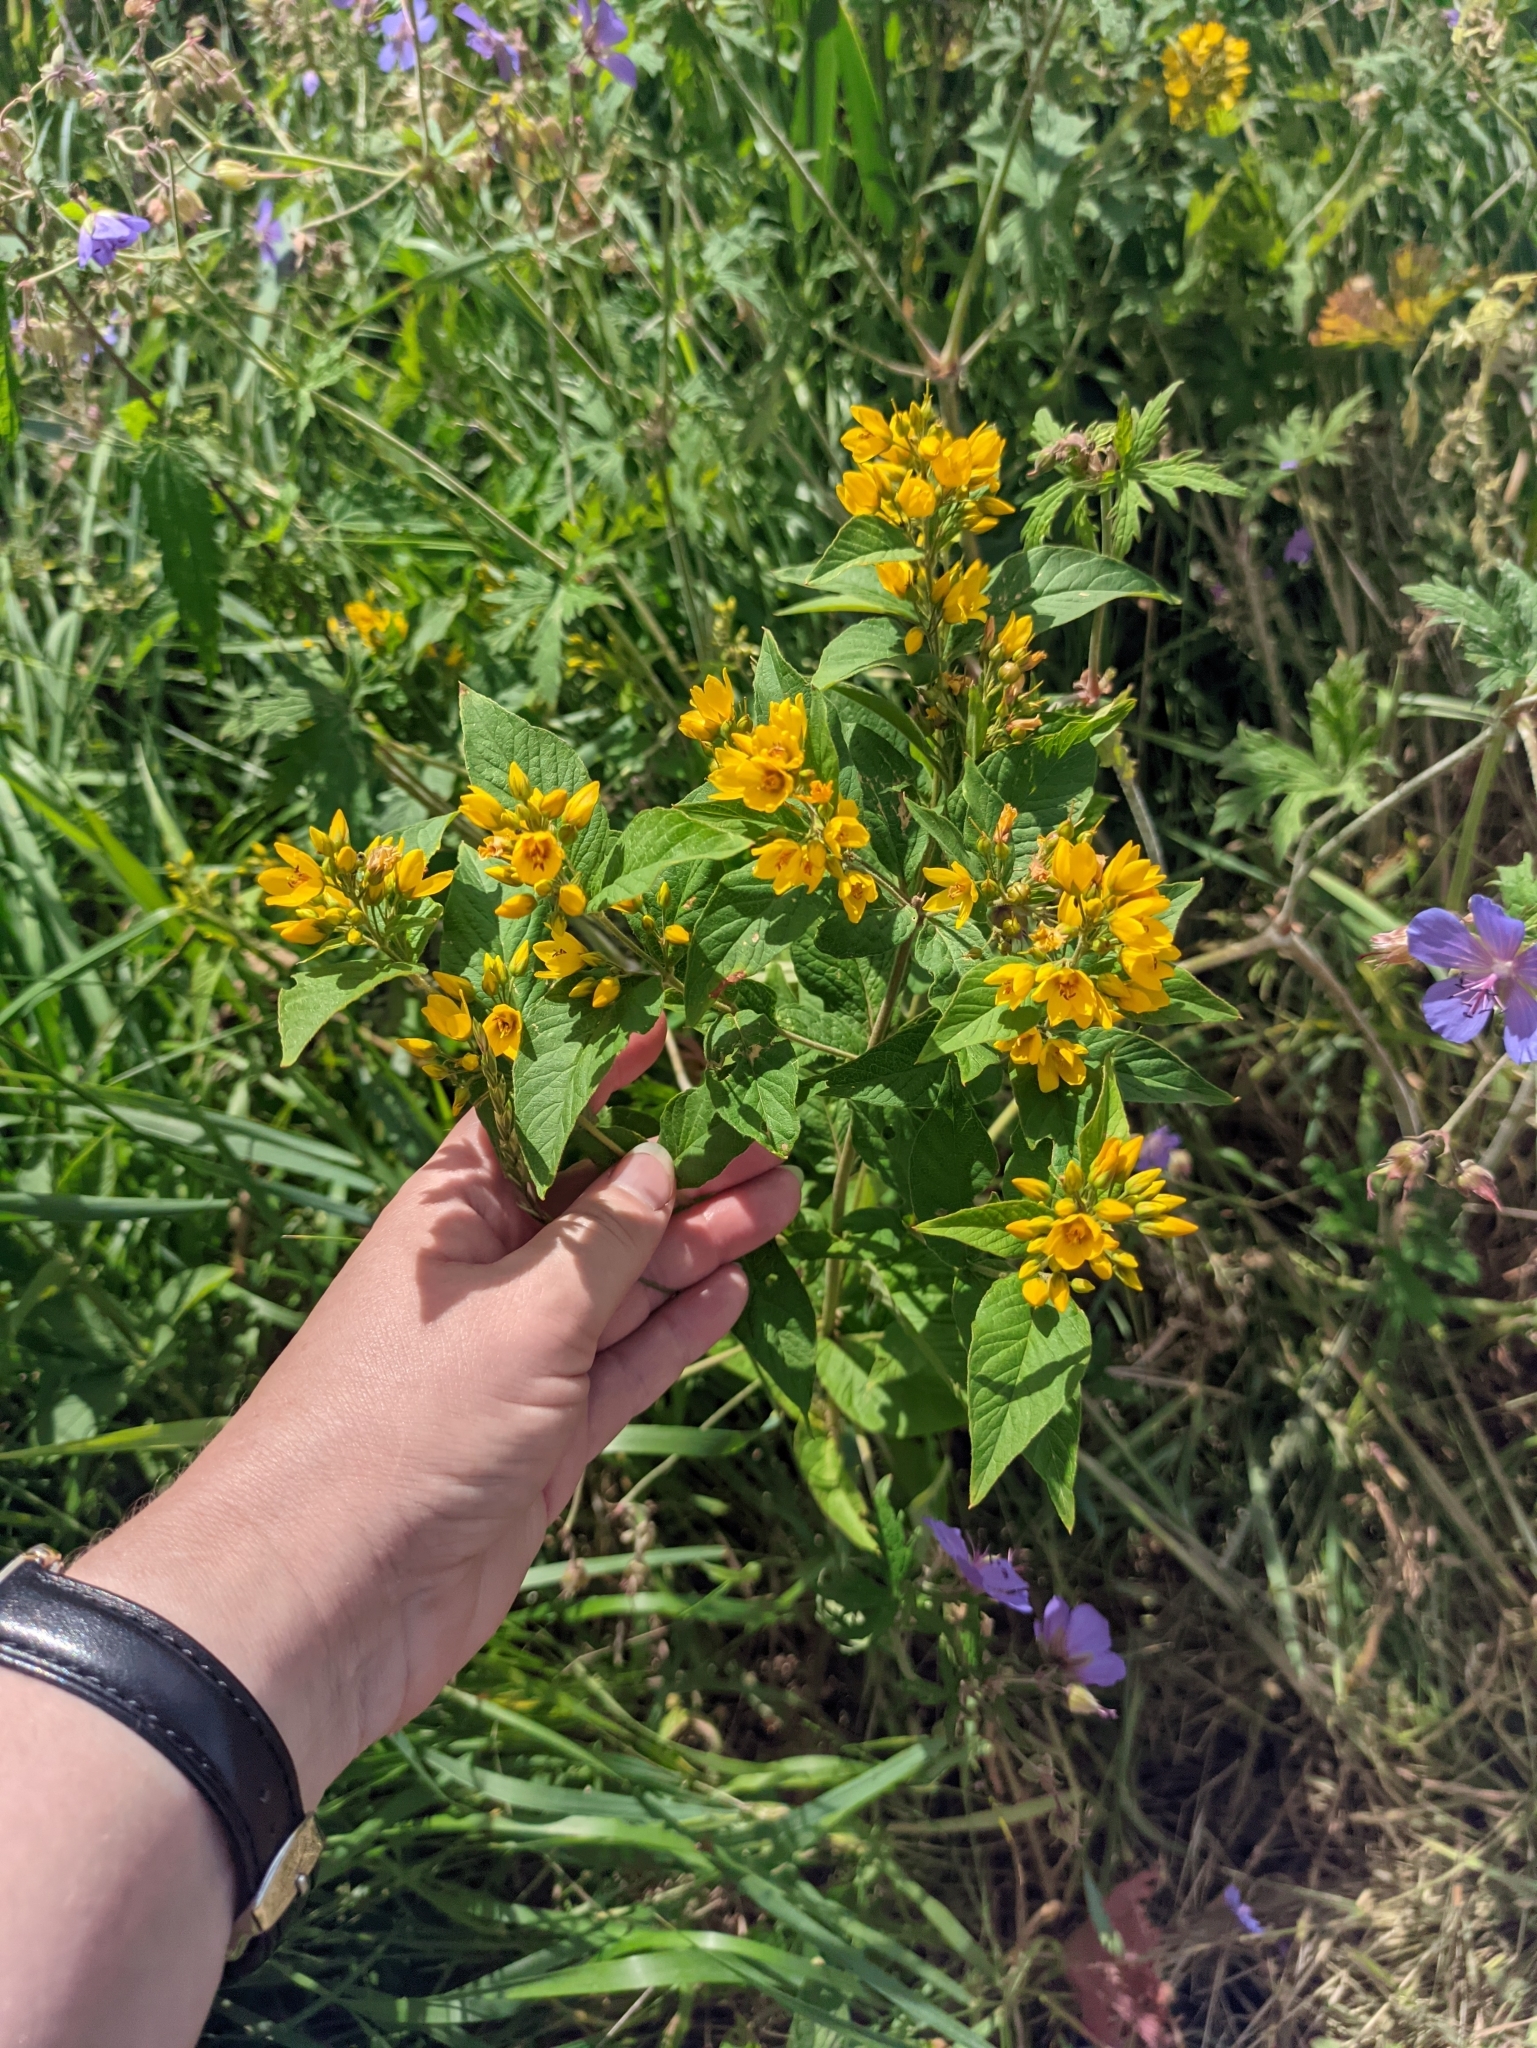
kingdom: Plantae
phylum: Tracheophyta
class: Magnoliopsida
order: Ericales
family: Primulaceae
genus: Lysimachia
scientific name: Lysimachia vulgaris
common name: Yellow loosestrife
